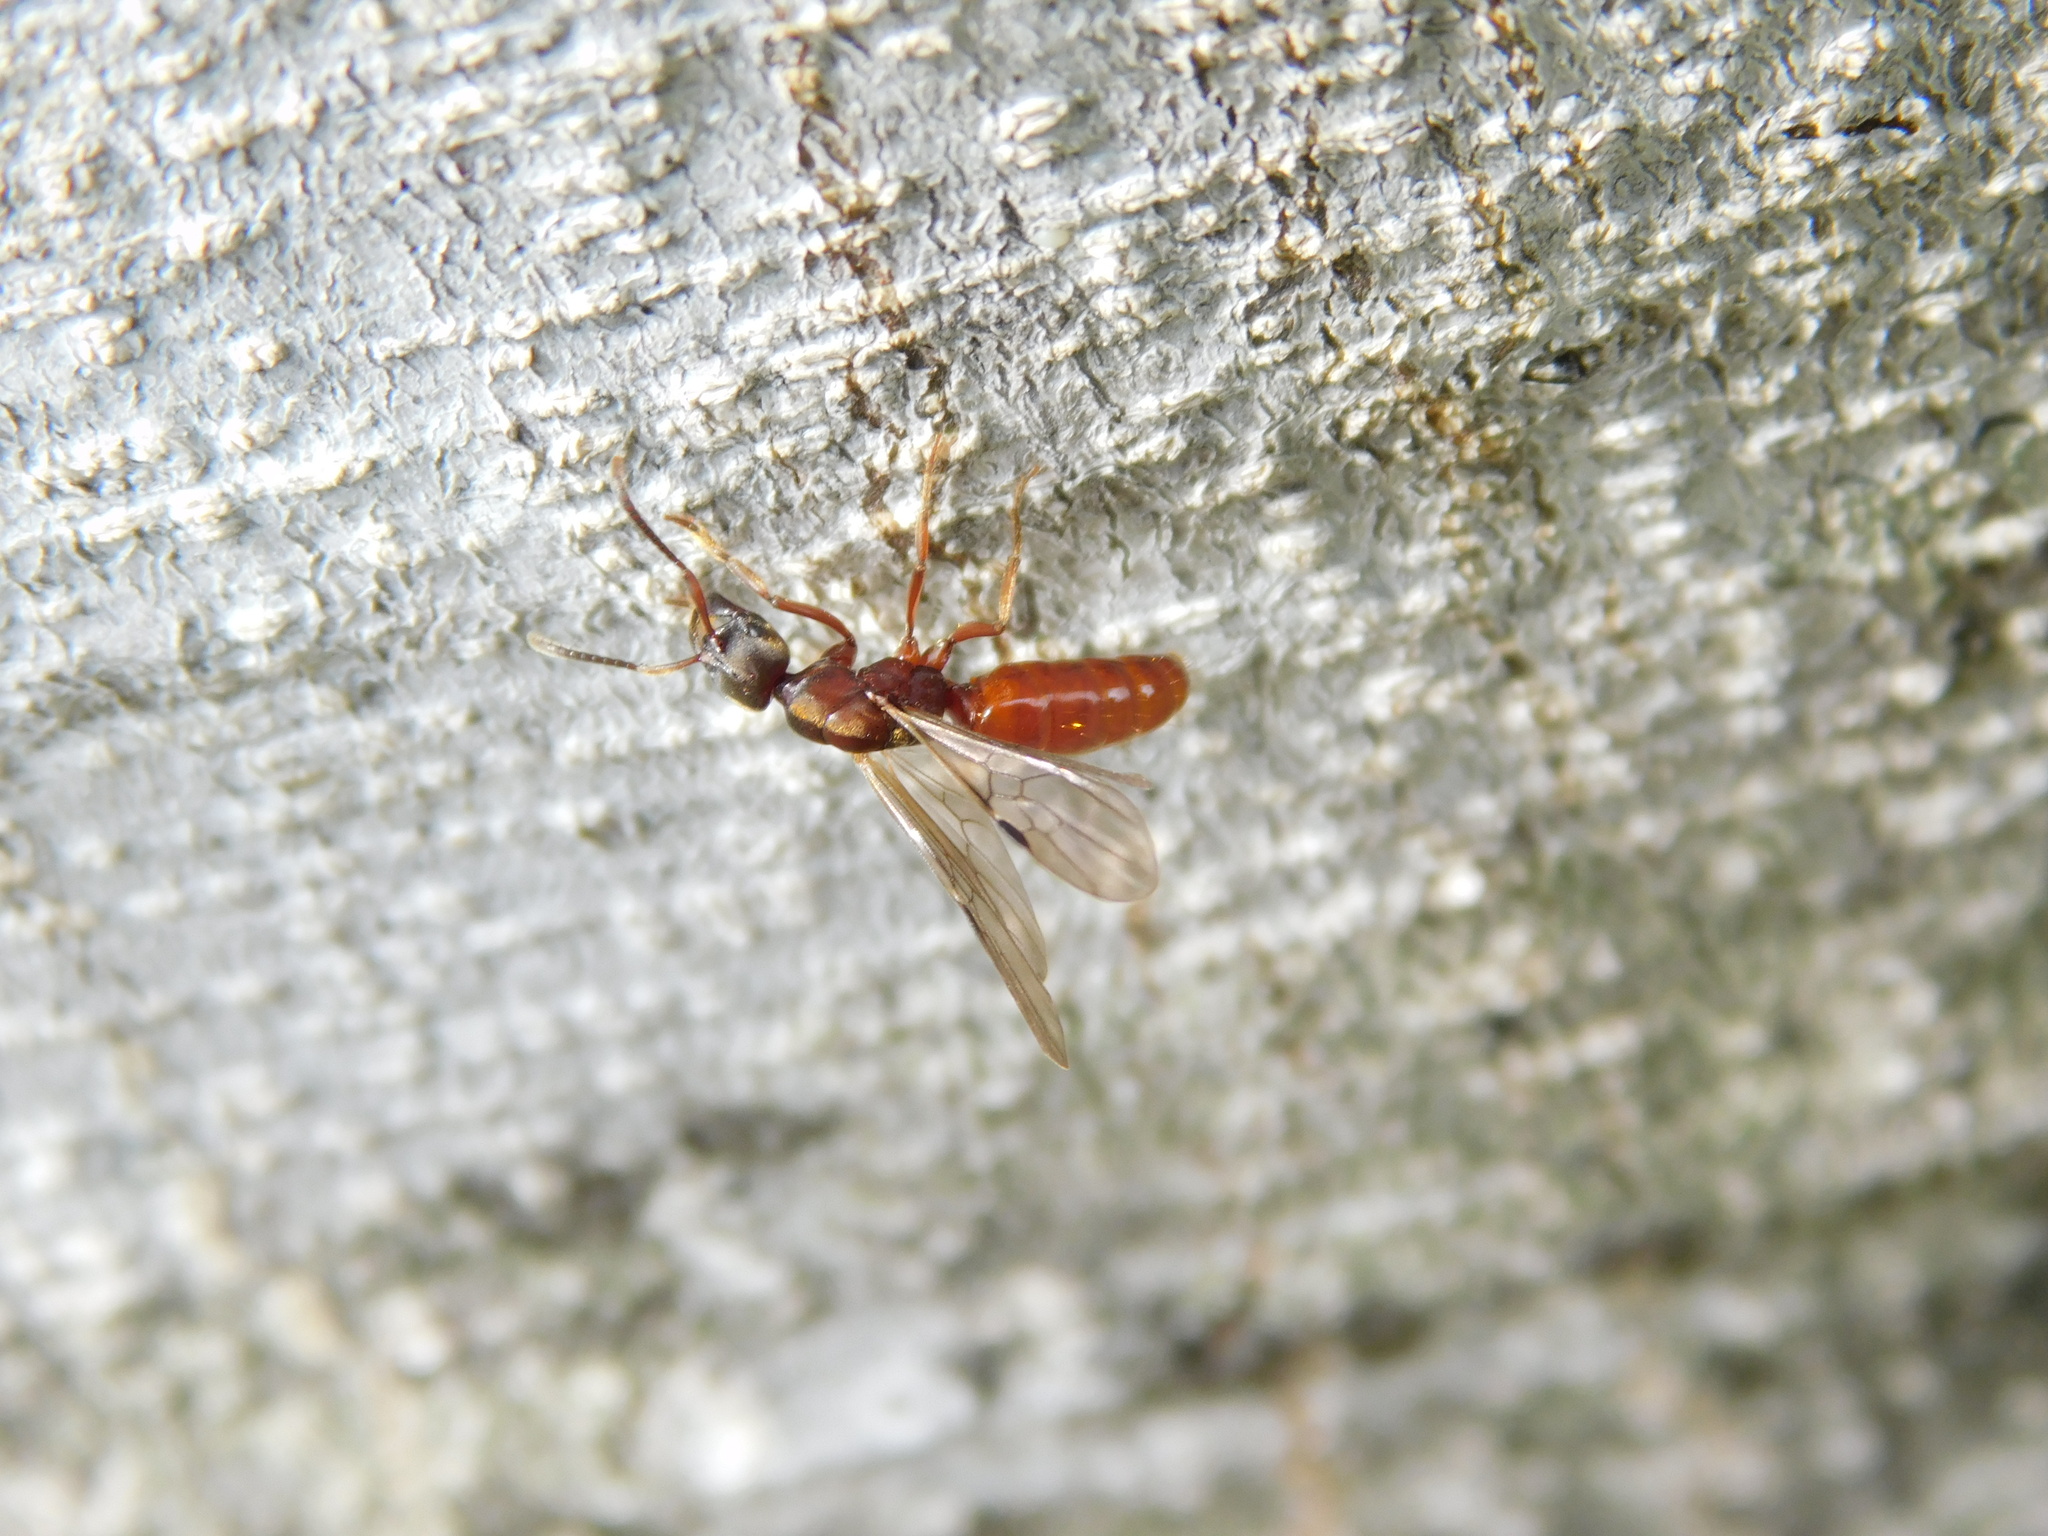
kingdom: Animalia
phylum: Arthropoda
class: Insecta
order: Hymenoptera
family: Formicidae
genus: Buniapone
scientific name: Buniapone
